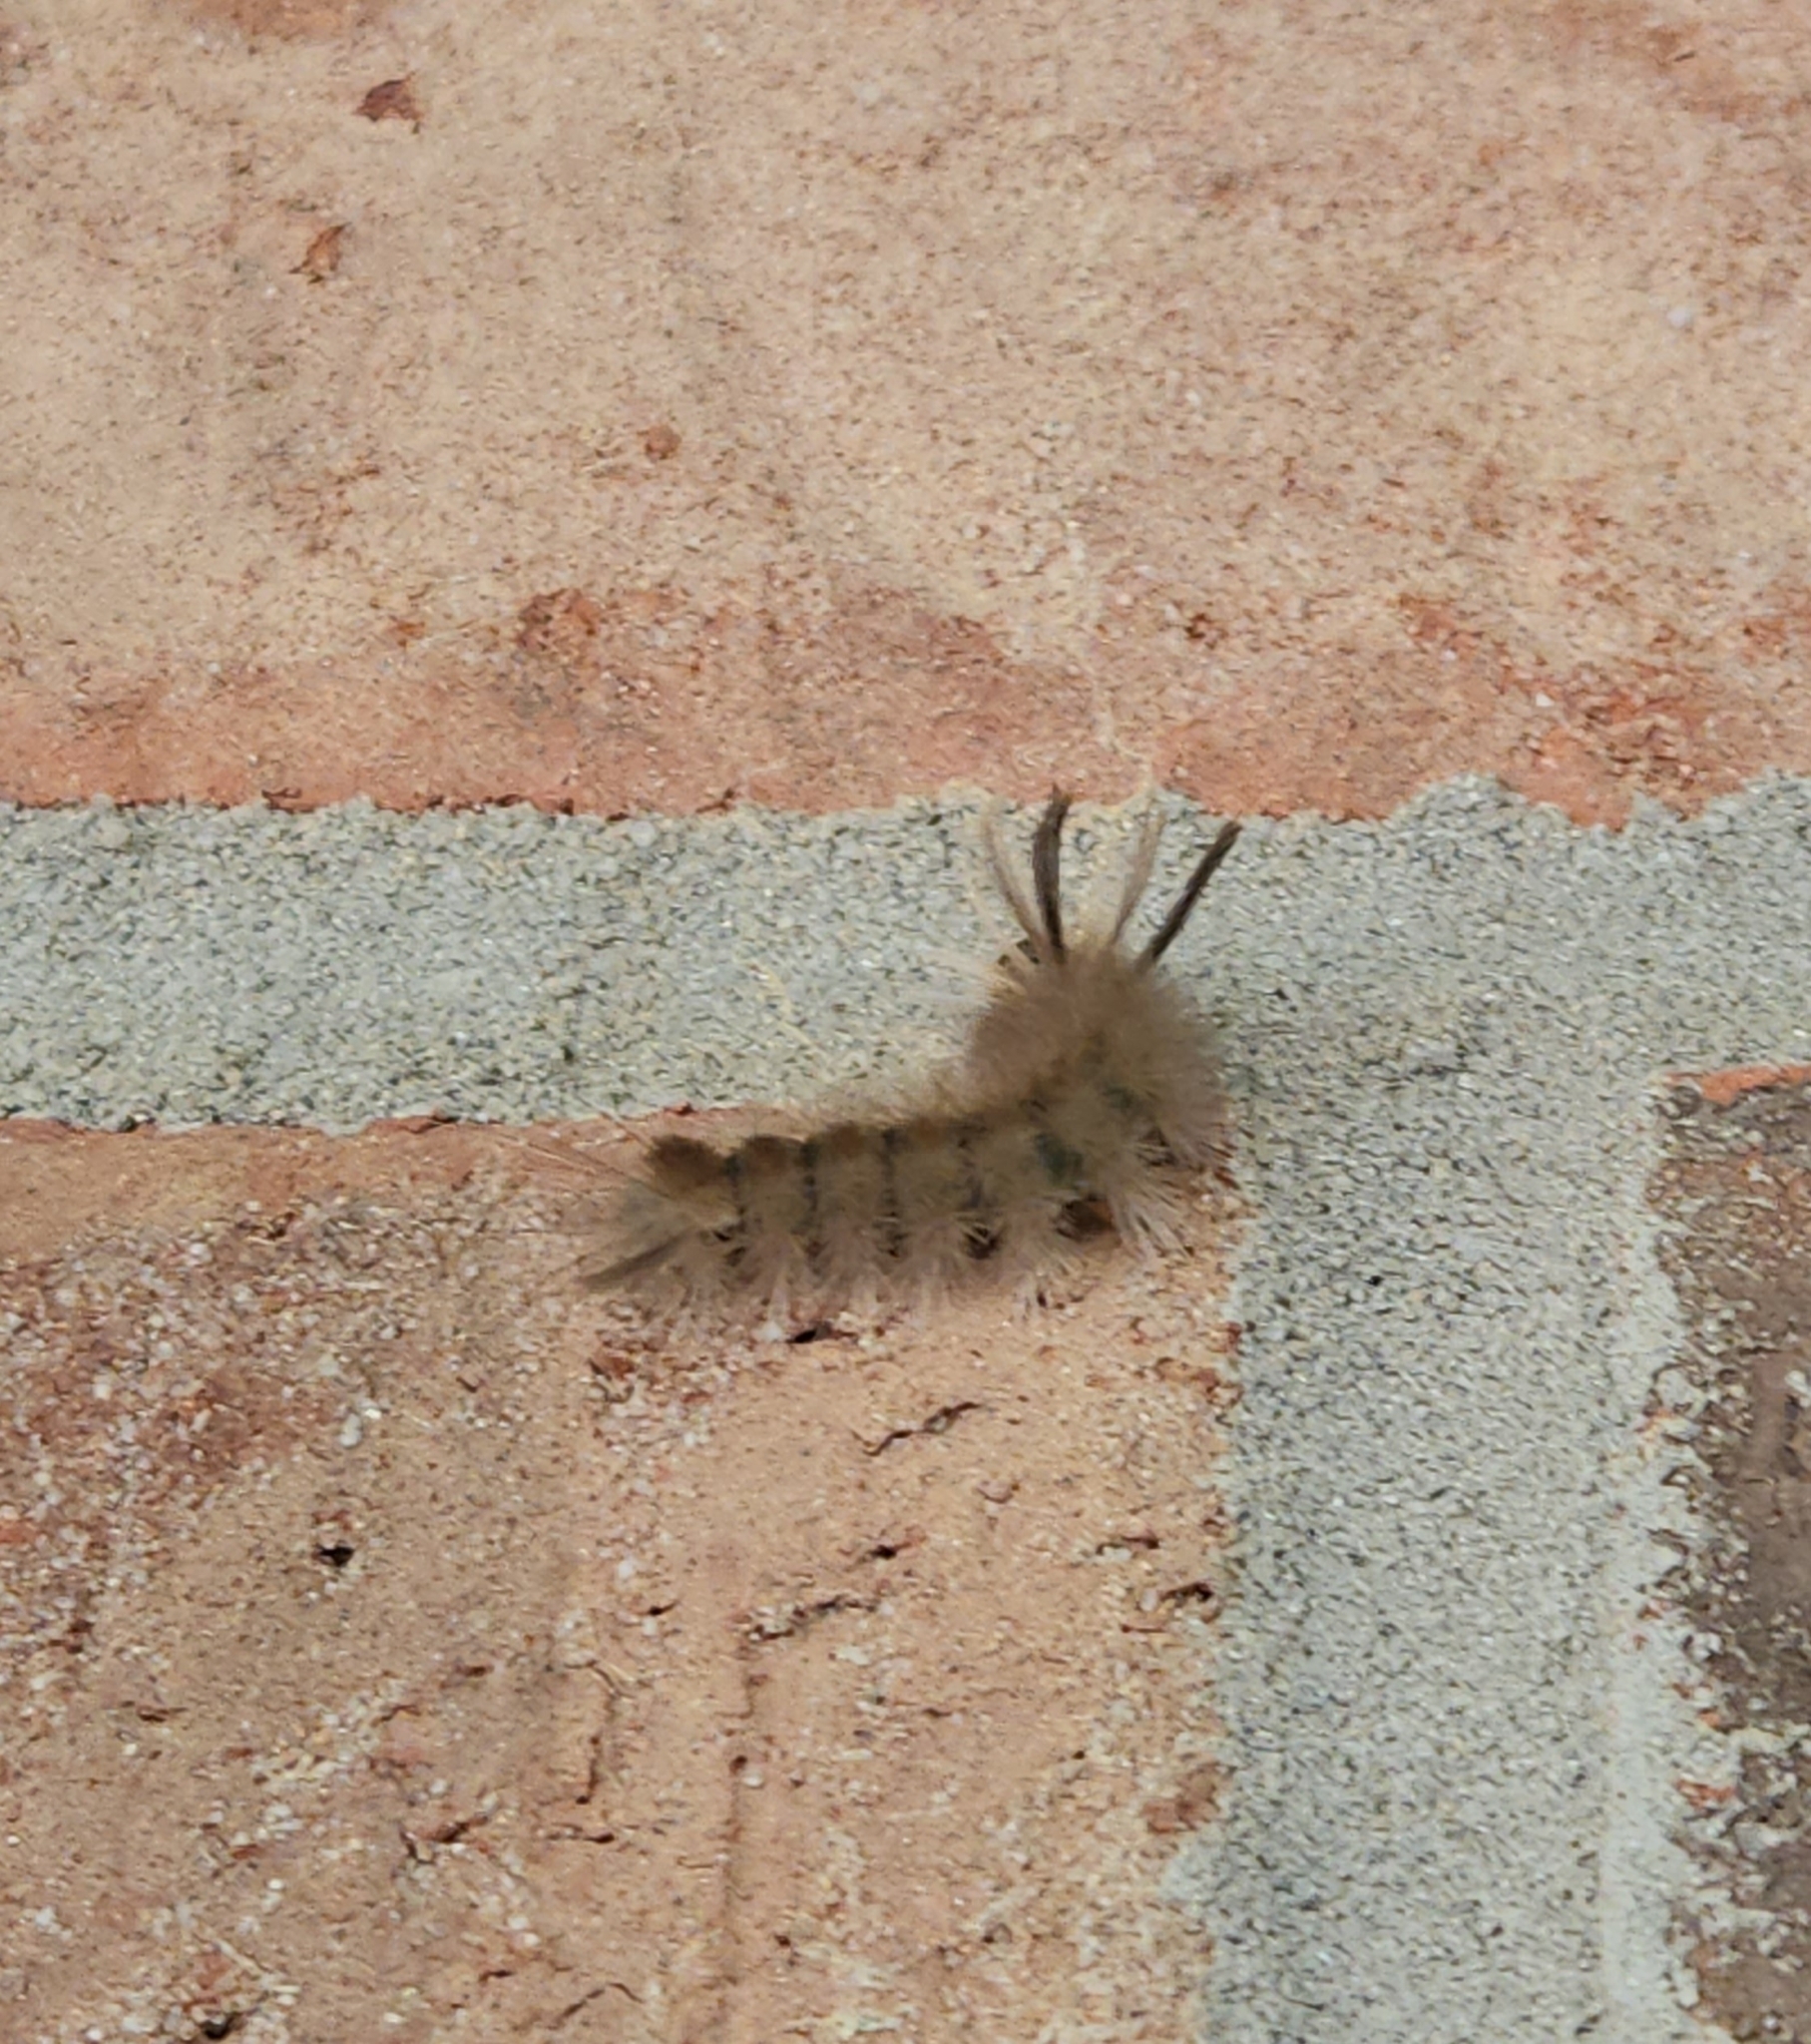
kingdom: Animalia
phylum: Arthropoda
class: Insecta
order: Lepidoptera
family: Erebidae
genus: Halysidota
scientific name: Halysidota tessellaris
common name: Banded tussock moth
